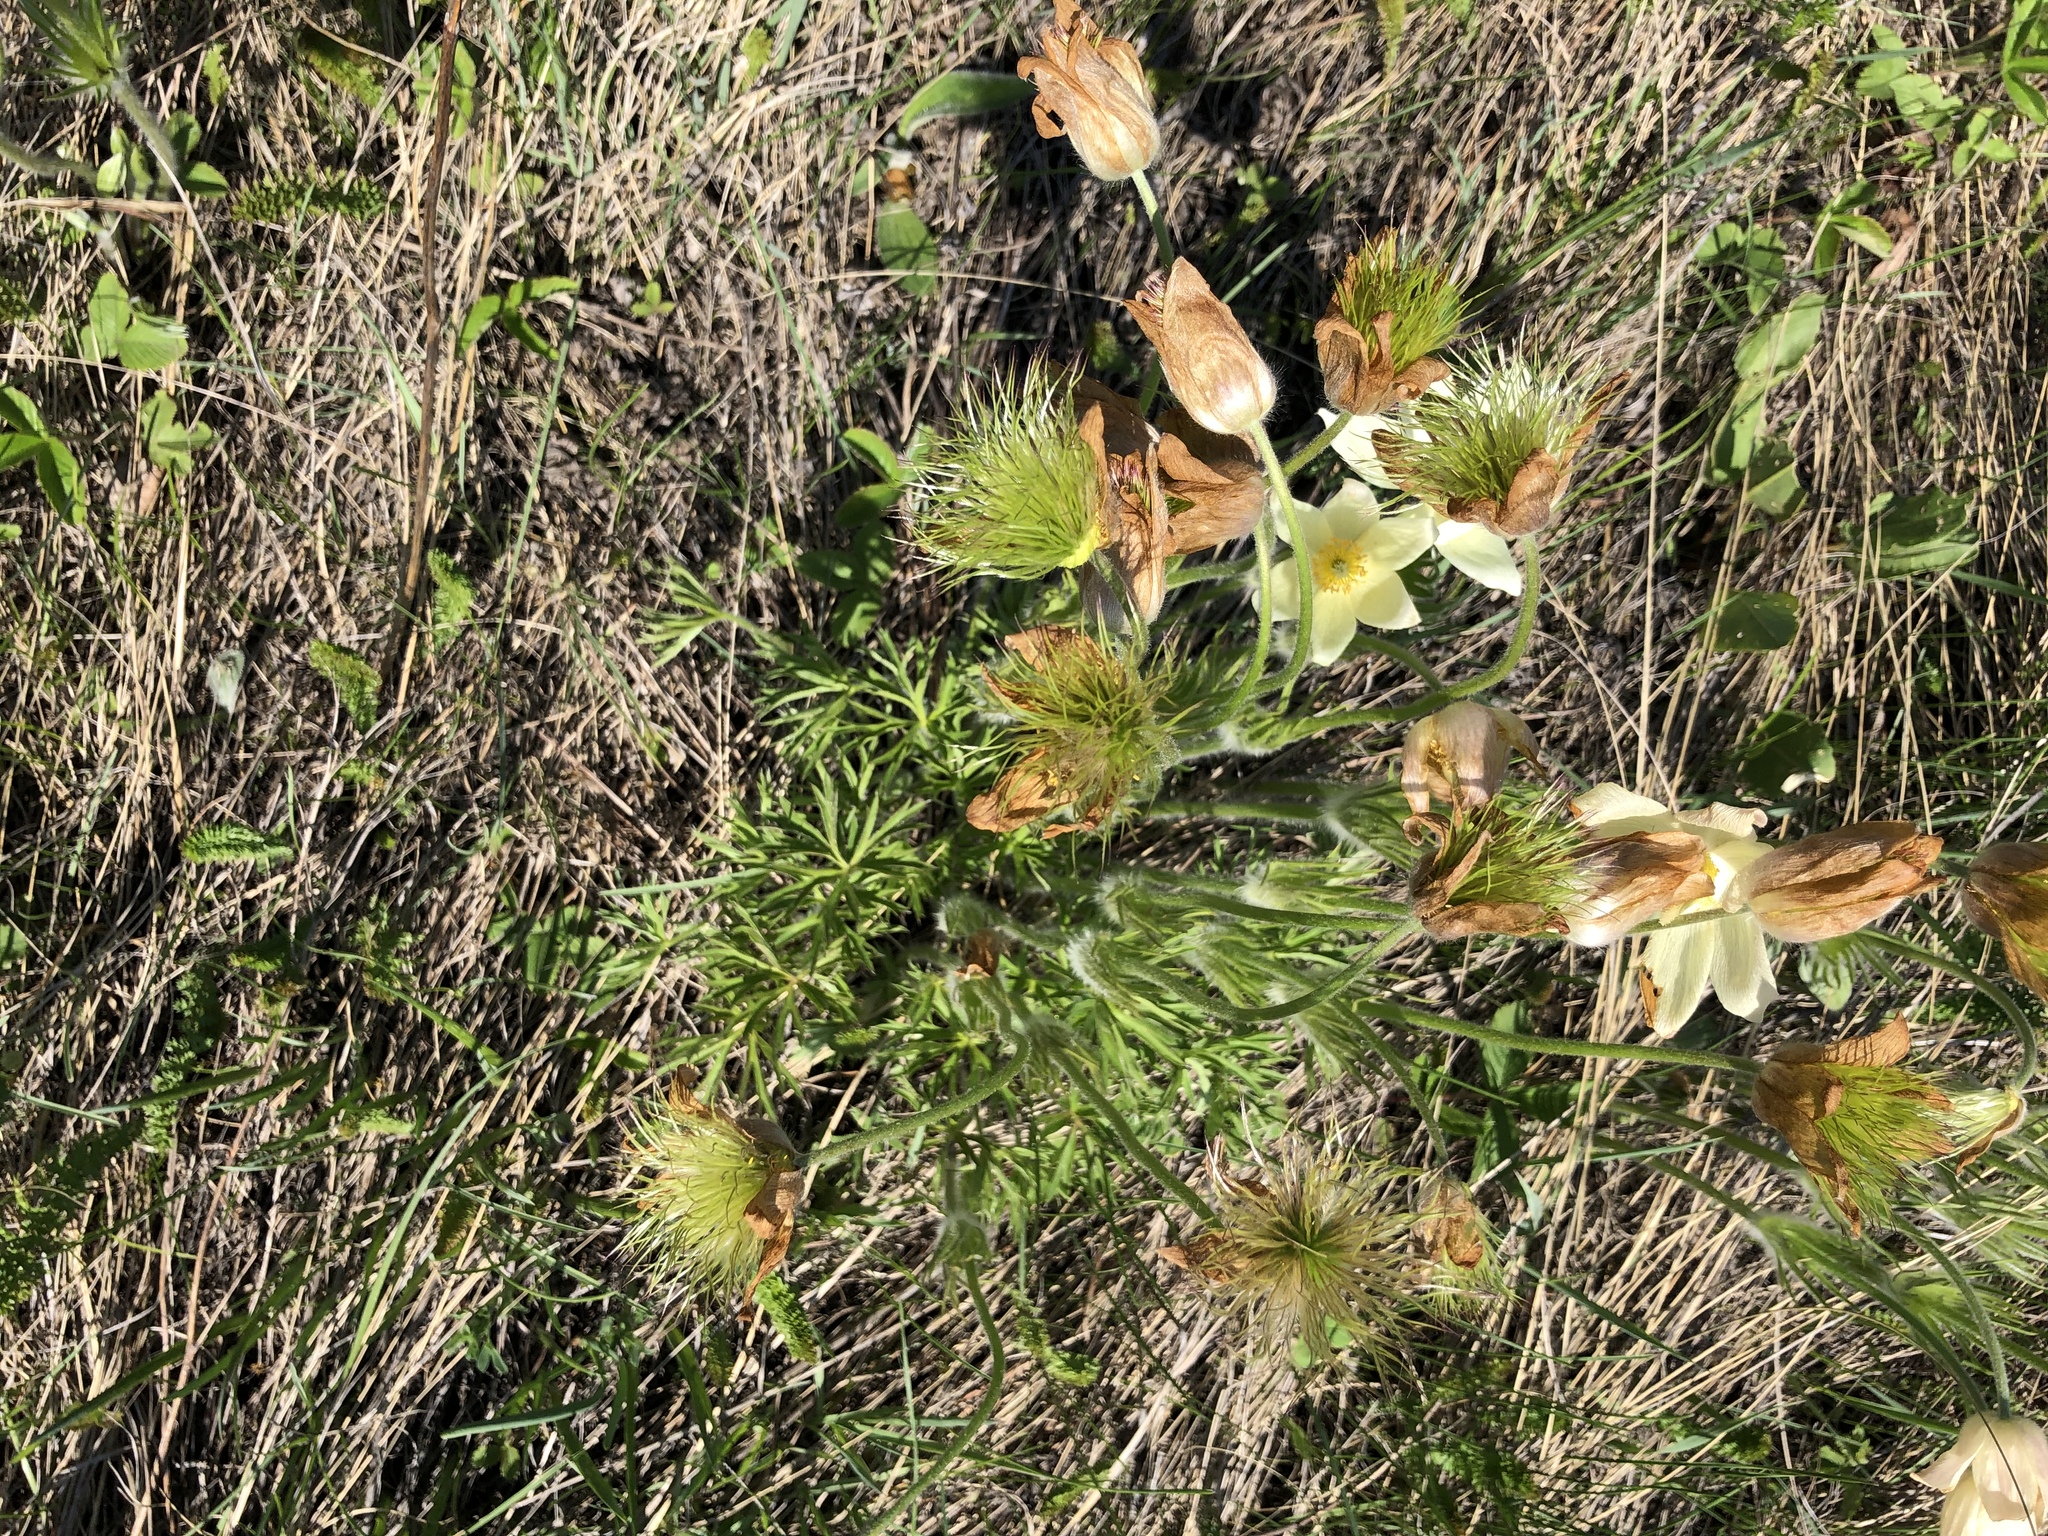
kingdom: Plantae
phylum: Tracheophyta
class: Magnoliopsida
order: Ranunculales
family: Ranunculaceae
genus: Pulsatilla
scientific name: Pulsatilla patens
